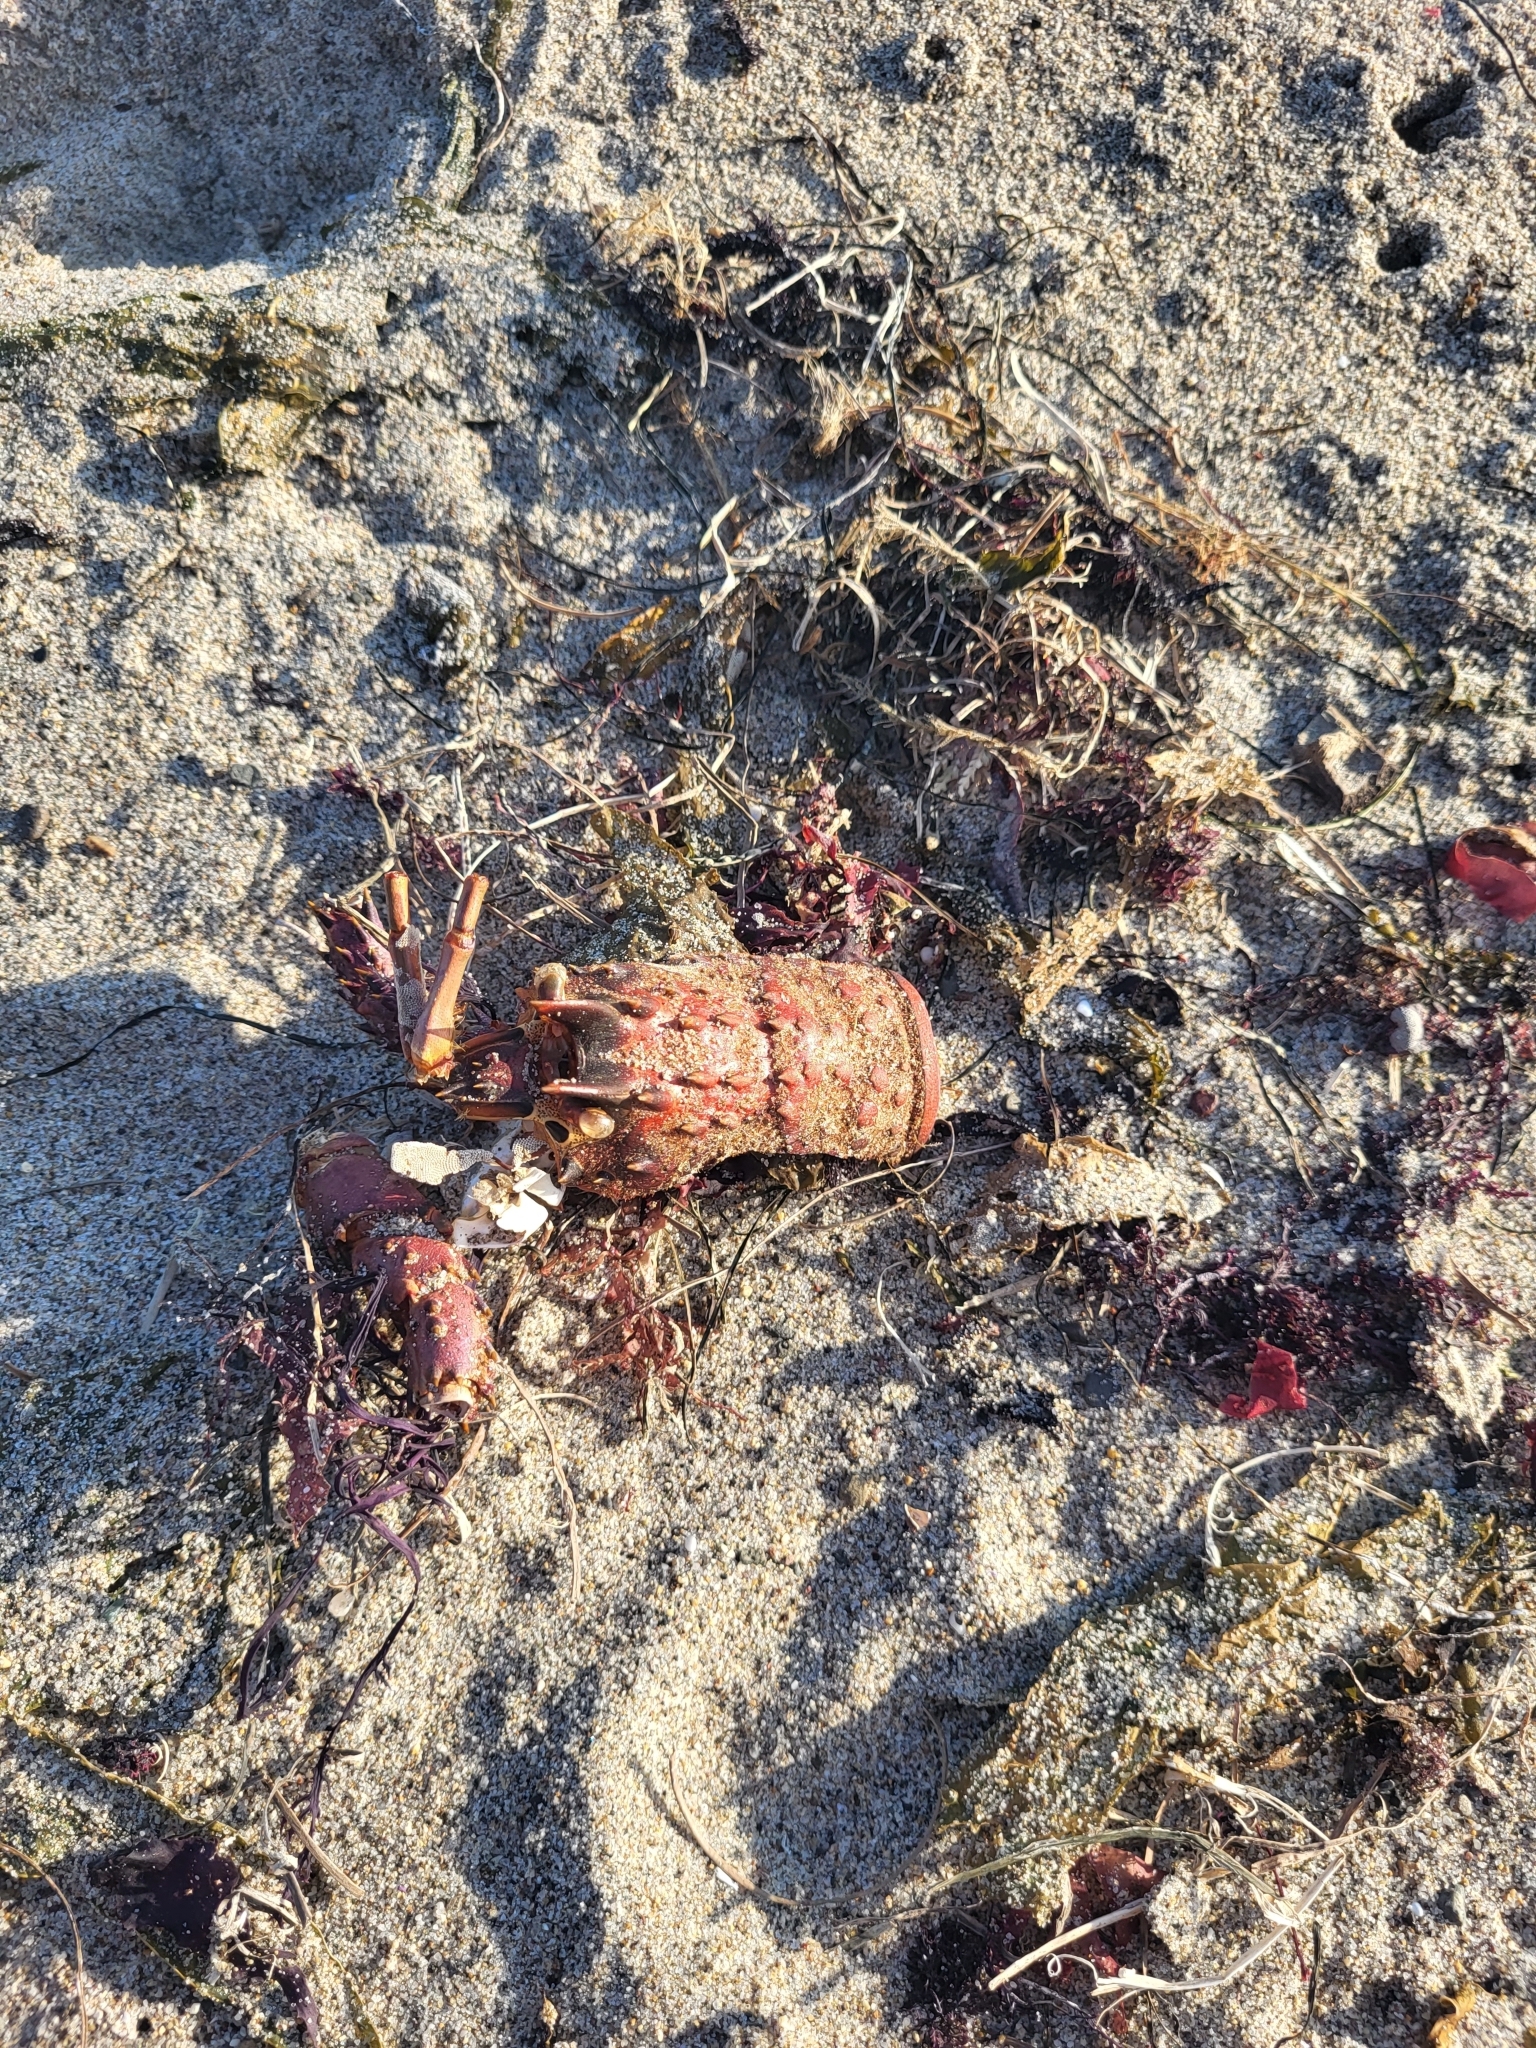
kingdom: Animalia
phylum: Arthropoda
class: Malacostraca
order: Decapoda
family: Palinuridae
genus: Panulirus
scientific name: Panulirus interruptus
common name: California spiny lobster
